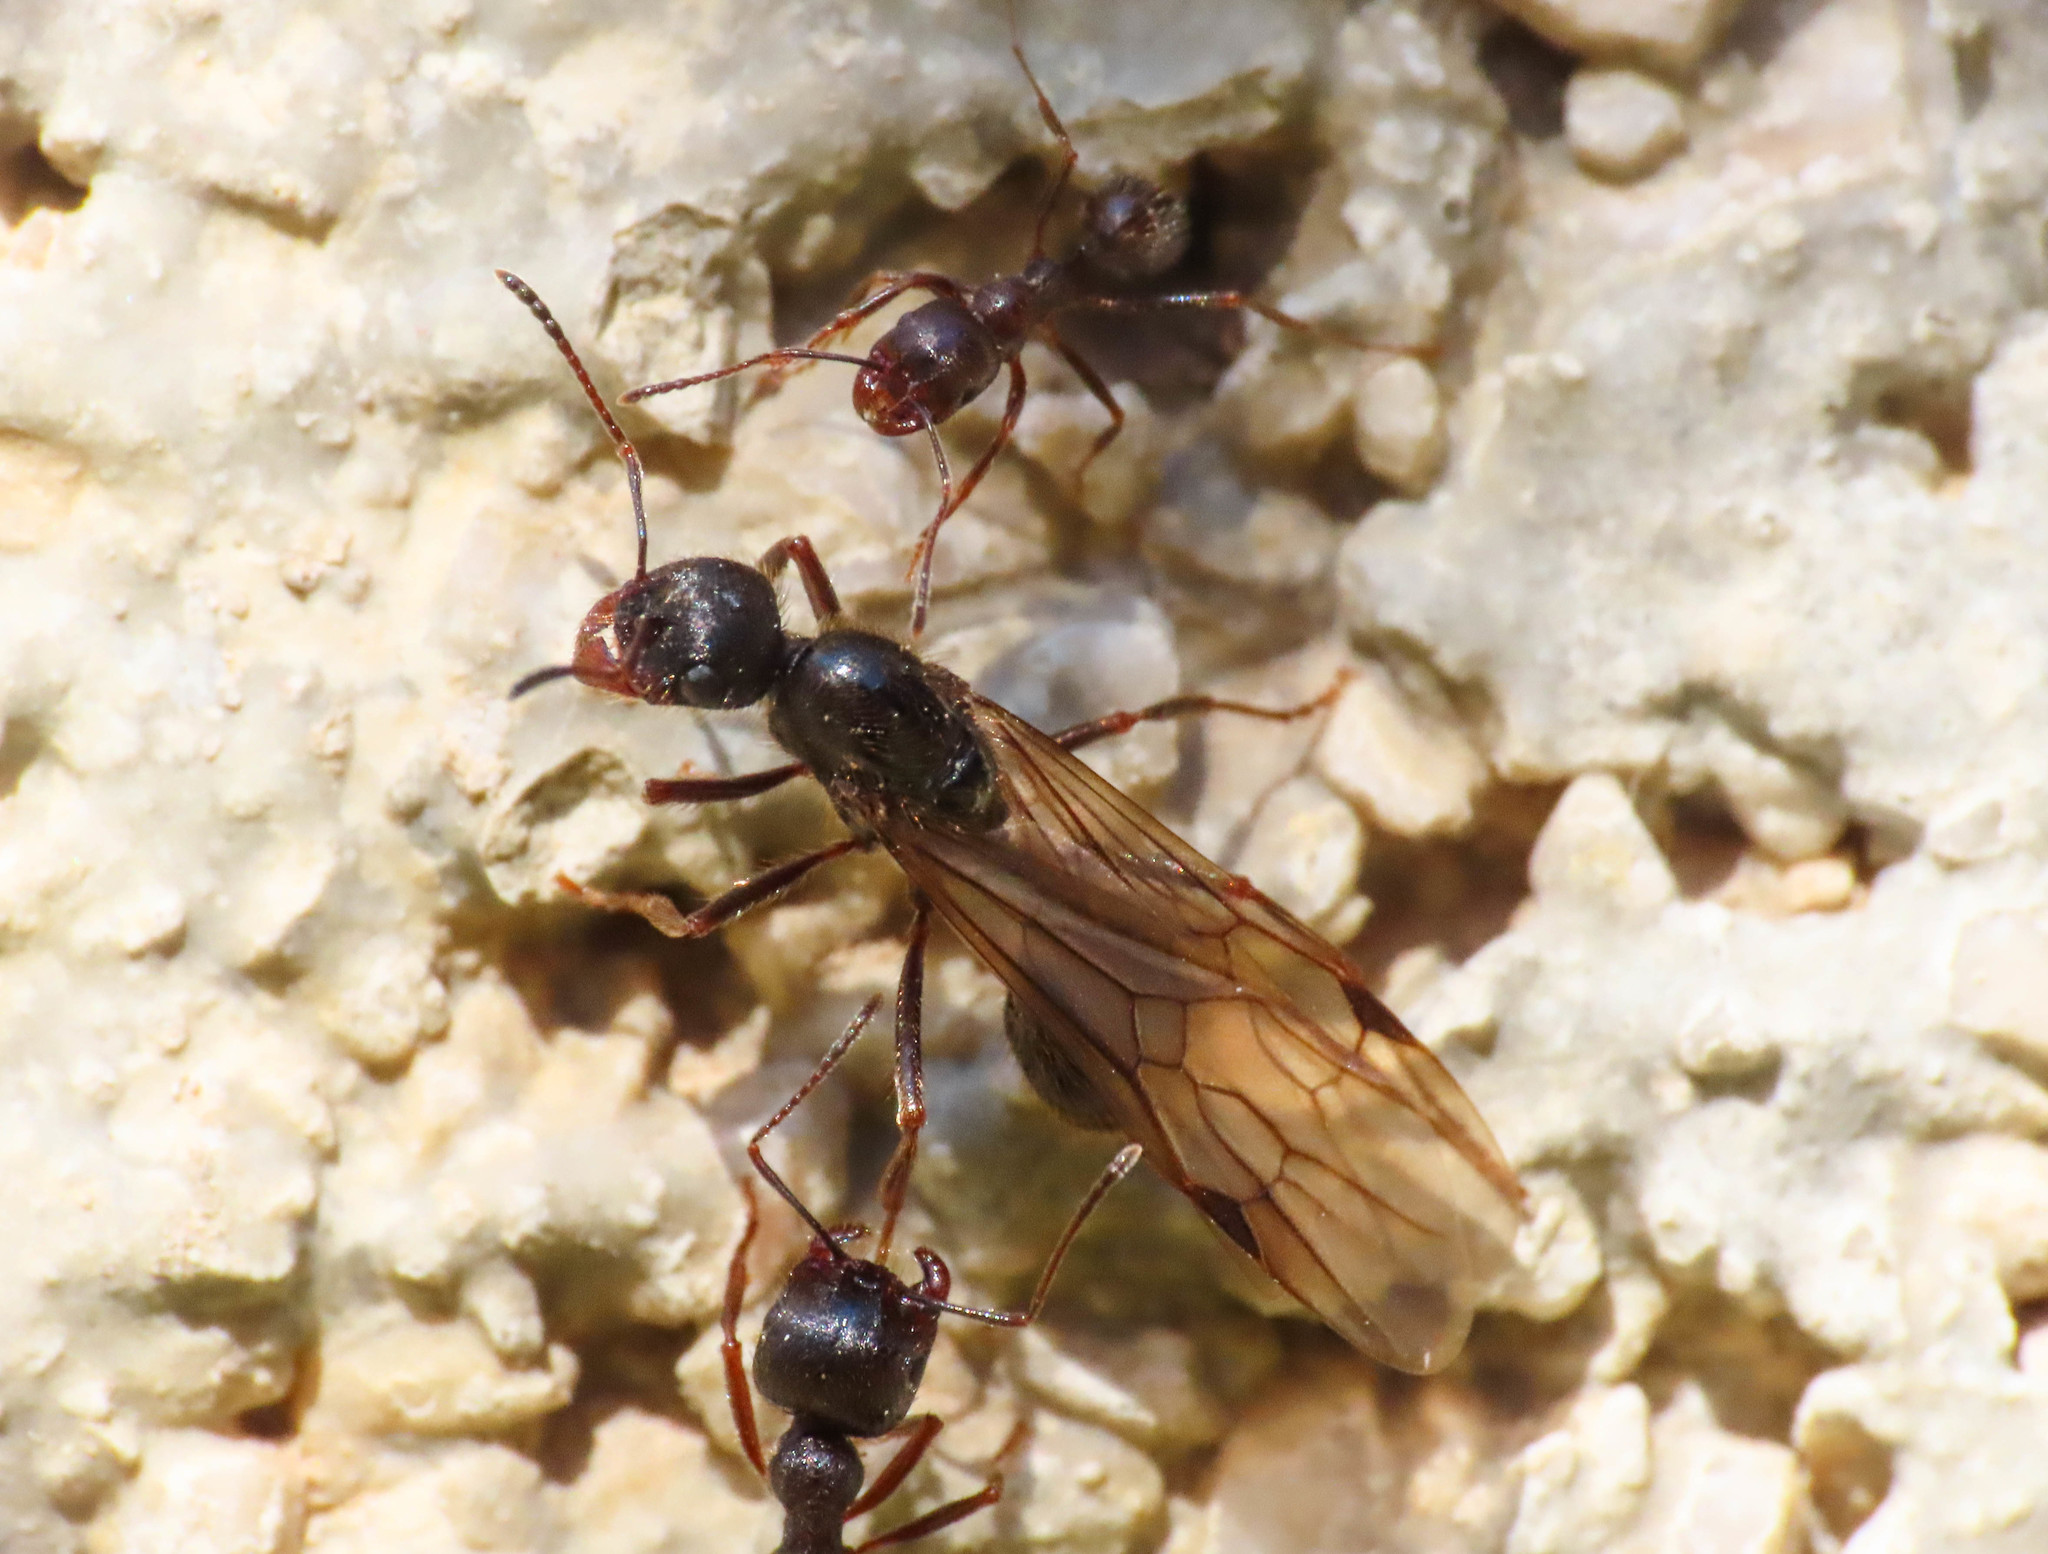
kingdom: Animalia
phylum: Arthropoda
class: Insecta
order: Hymenoptera
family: Formicidae
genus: Messor
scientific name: Messor ibericus
